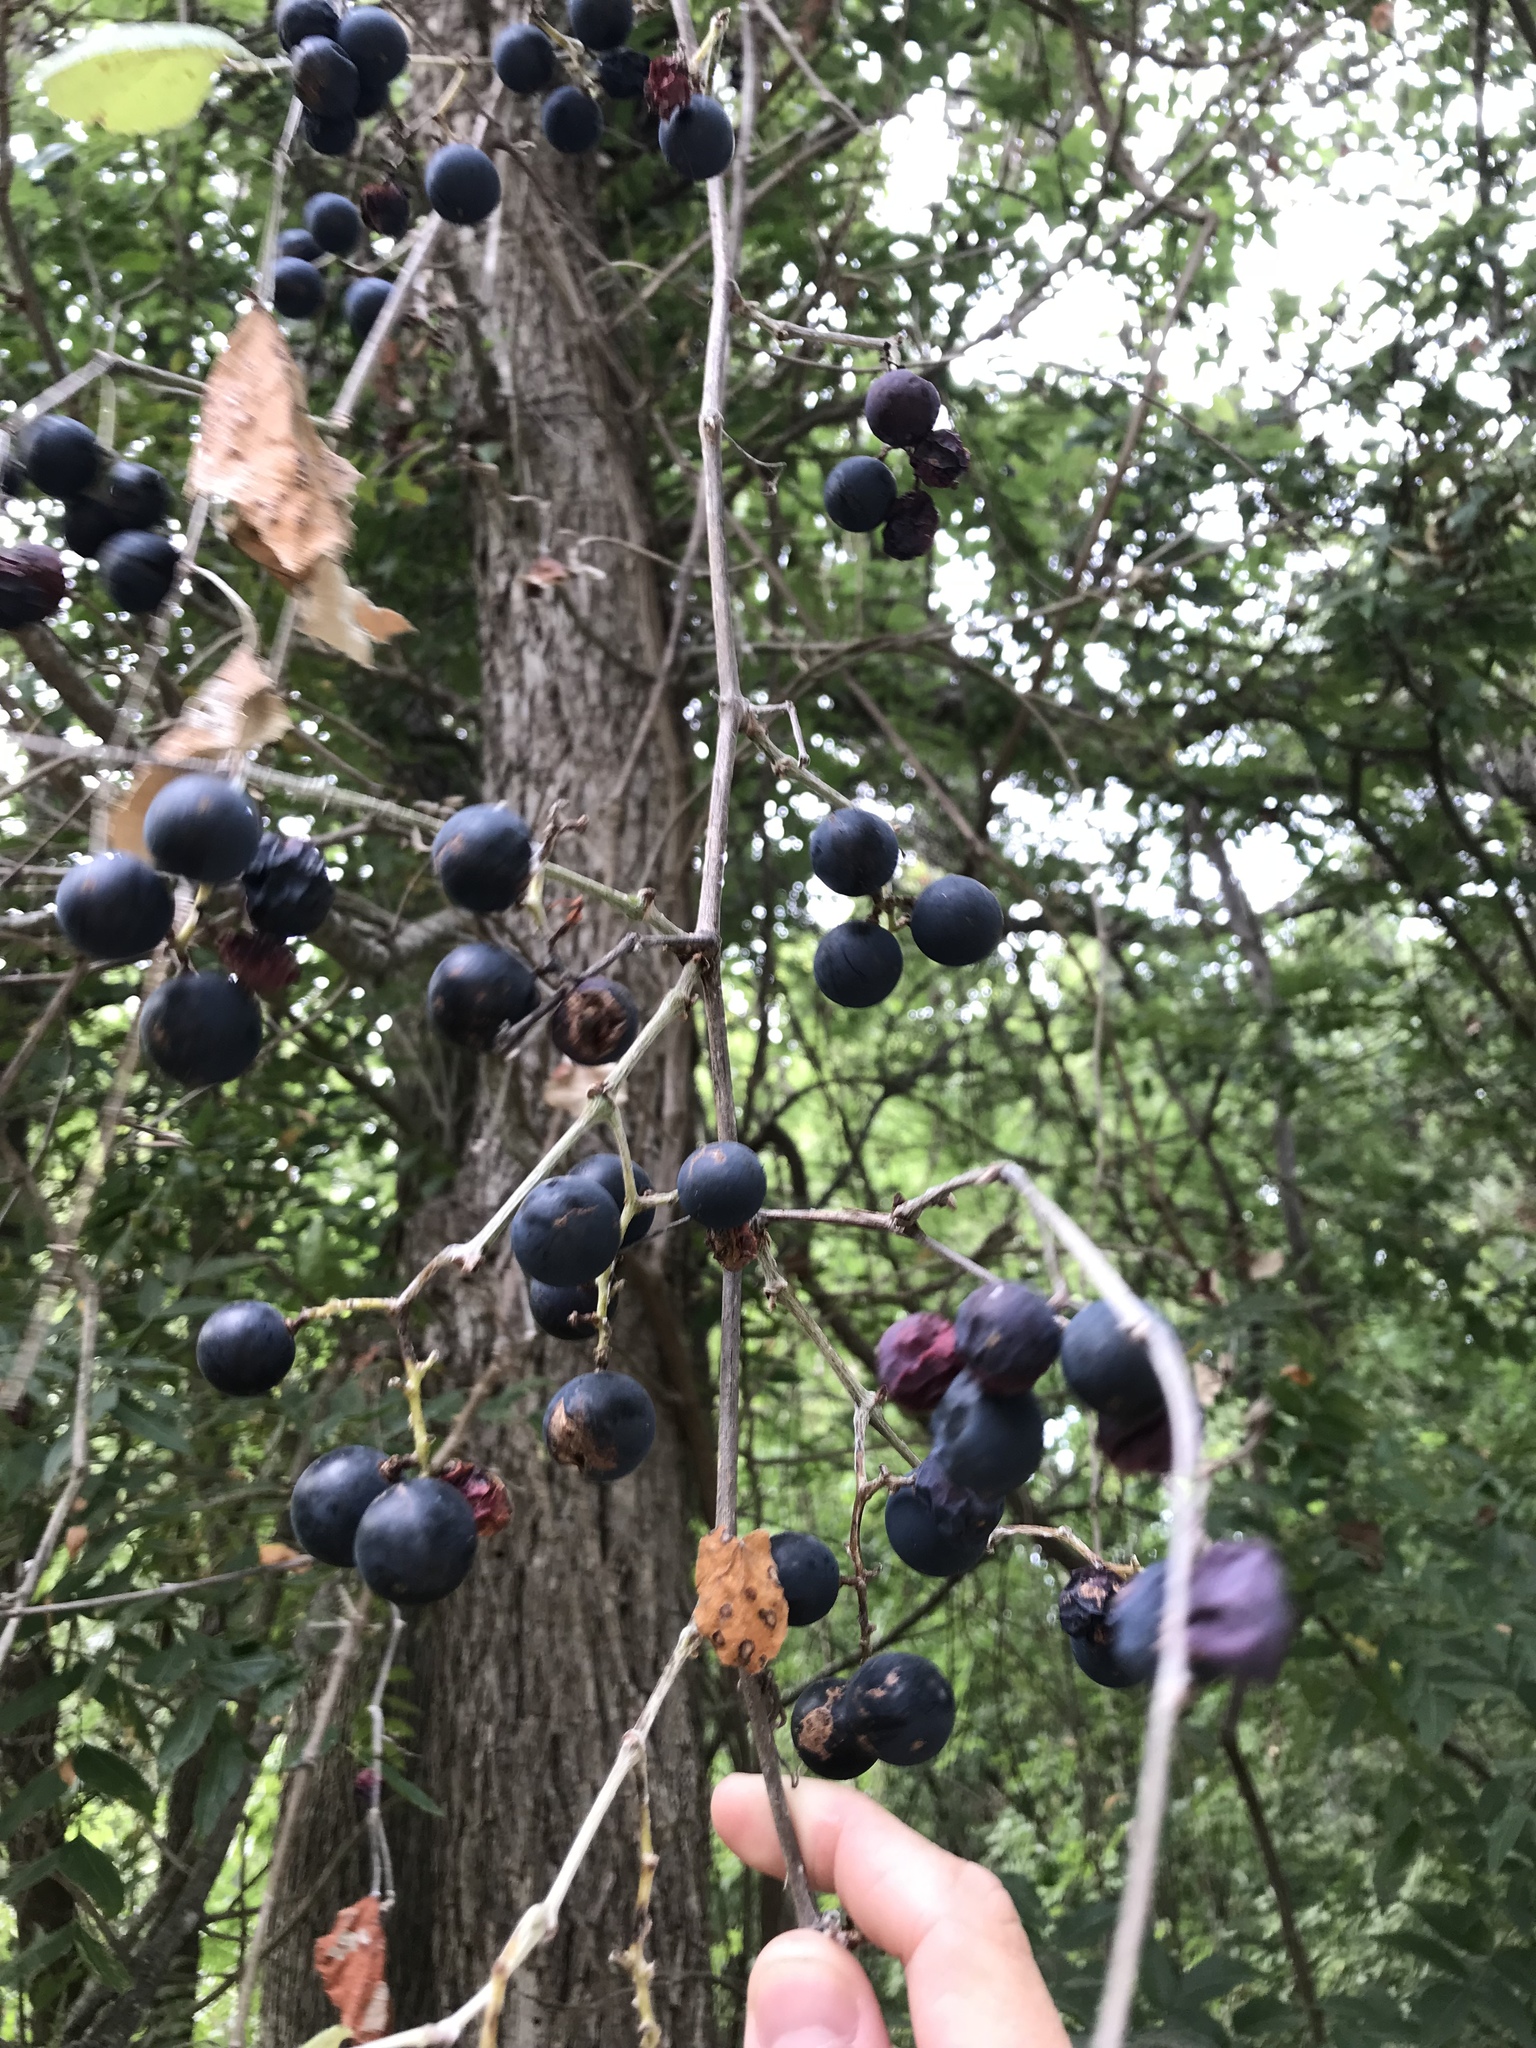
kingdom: Plantae
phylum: Tracheophyta
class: Magnoliopsida
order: Vitales
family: Vitaceae
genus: Vitis
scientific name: Vitis mustangensis
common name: Mustang grape
